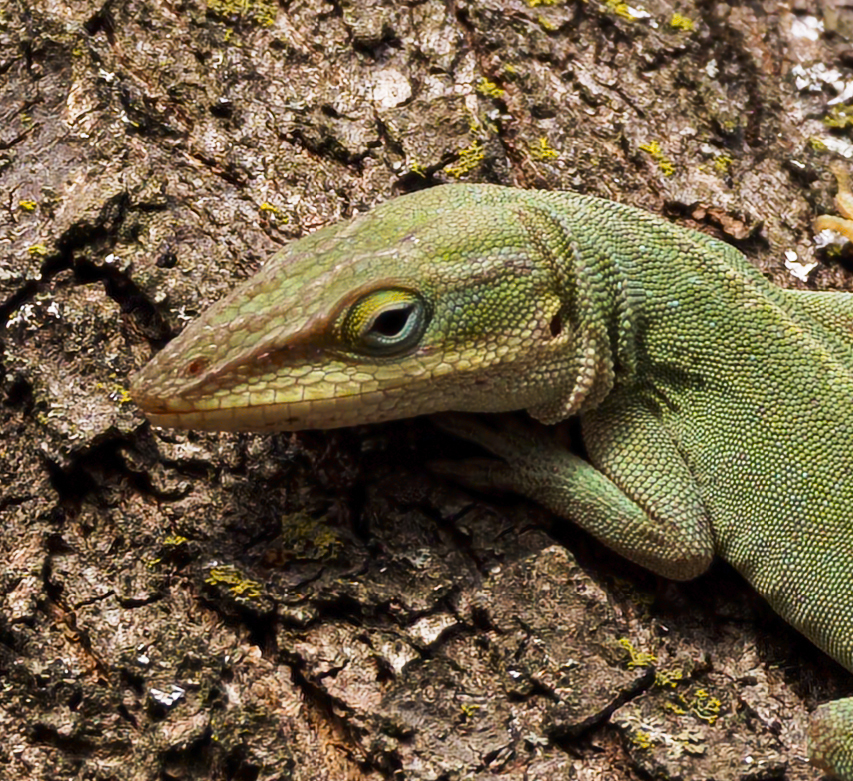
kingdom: Animalia
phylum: Chordata
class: Squamata
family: Dactyloidae
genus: Anolis
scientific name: Anolis carolinensis
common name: Green anole
